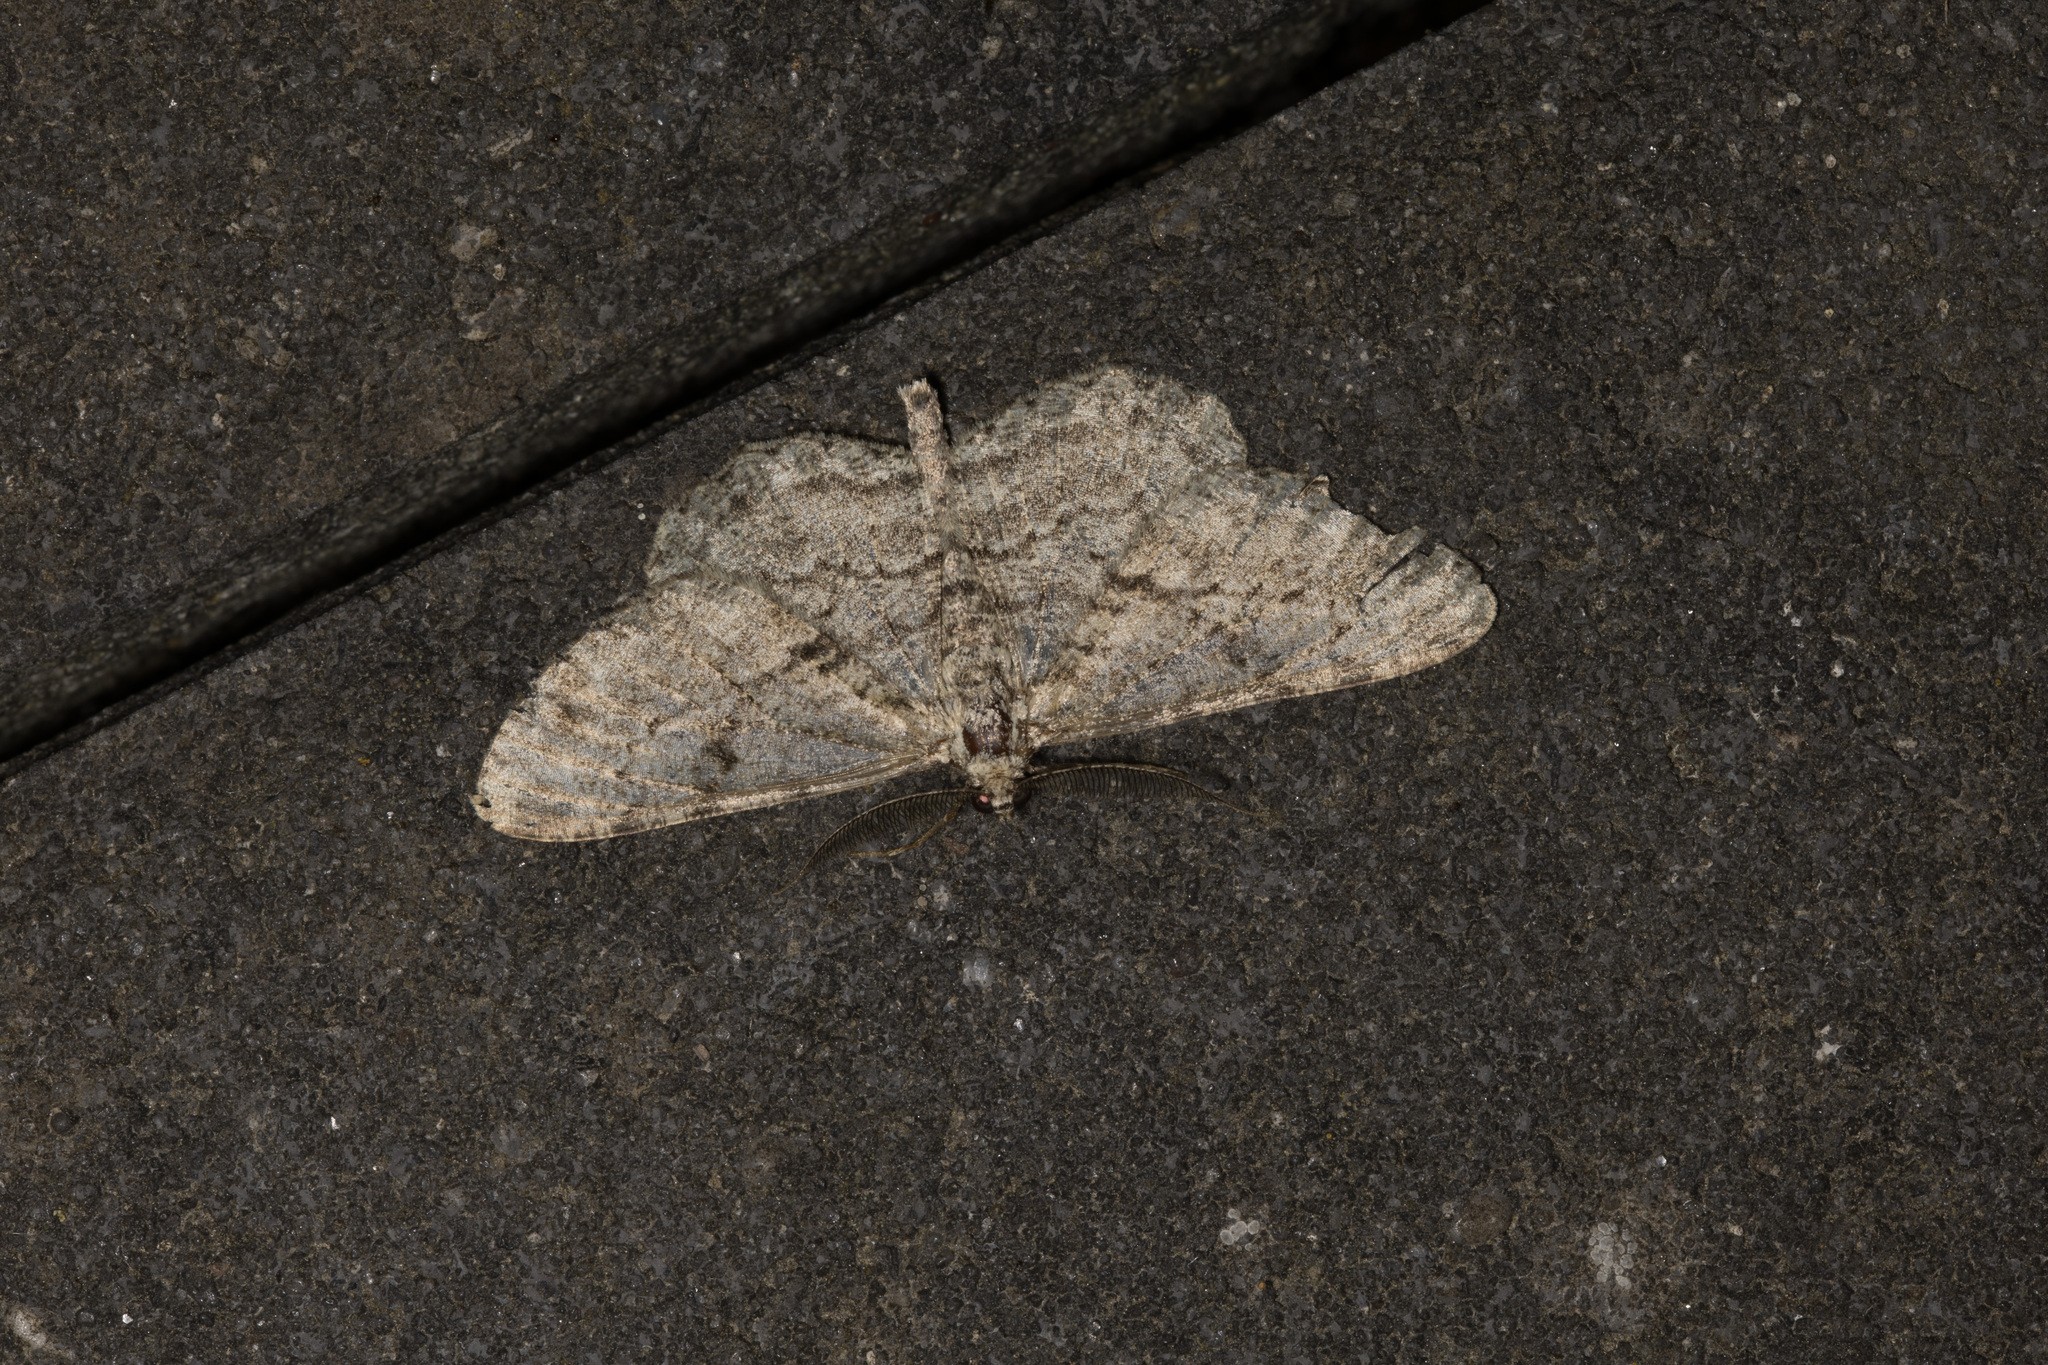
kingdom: Animalia
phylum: Arthropoda
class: Insecta
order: Lepidoptera
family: Geometridae
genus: Peribatodes
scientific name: Peribatodes rhomboidaria
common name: Willow beauty
